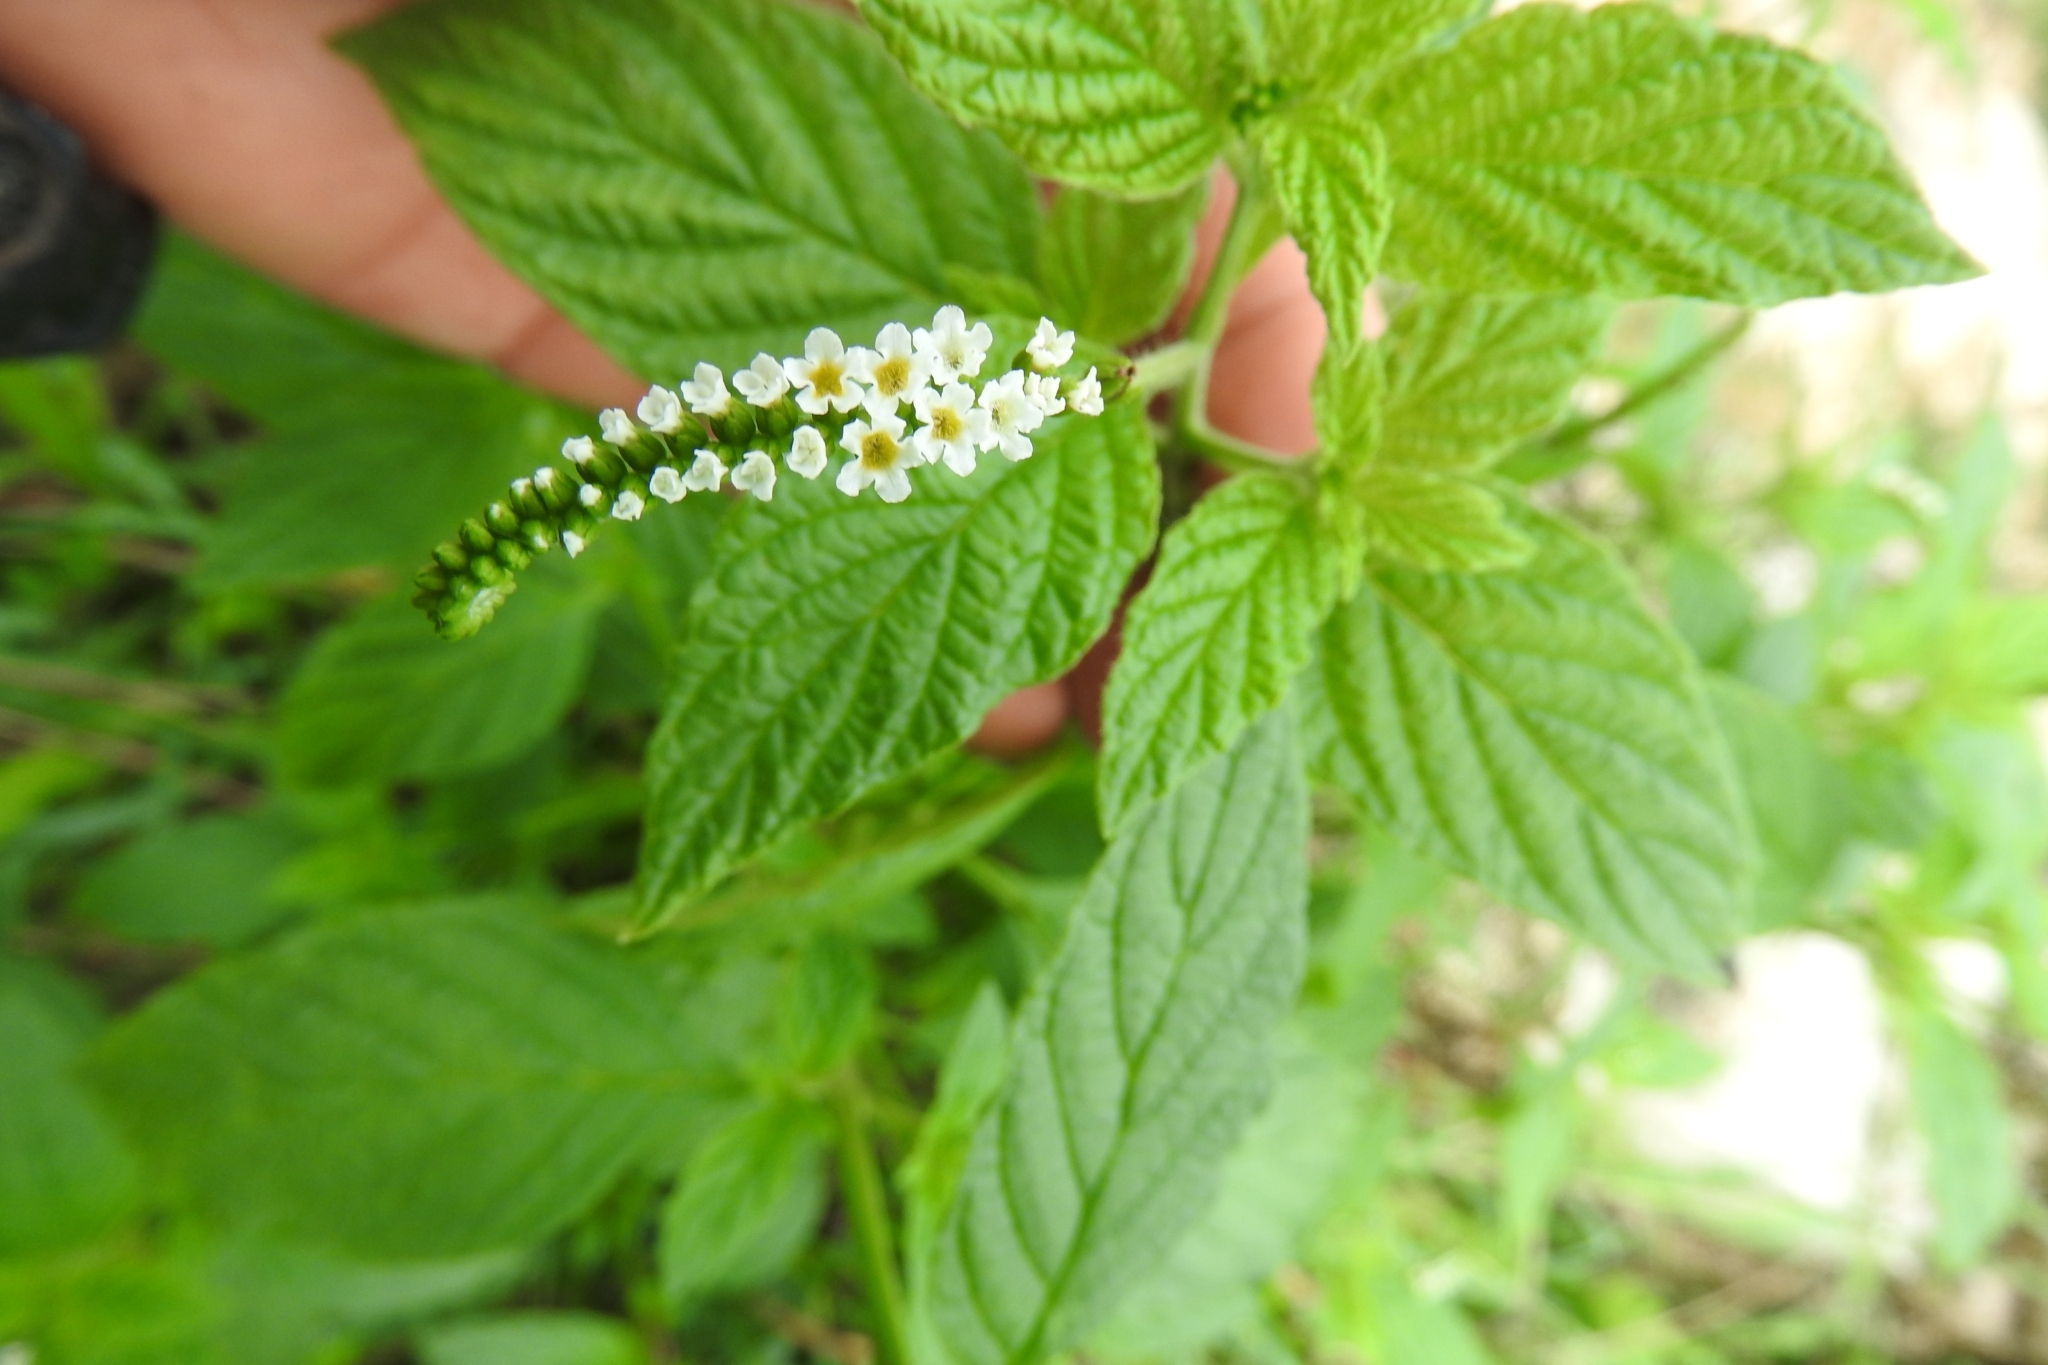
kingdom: Plantae
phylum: Tracheophyta
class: Magnoliopsida
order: Boraginales
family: Heliotropiaceae
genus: Heliotropium
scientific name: Heliotropium angiospermum
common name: Eye bright
